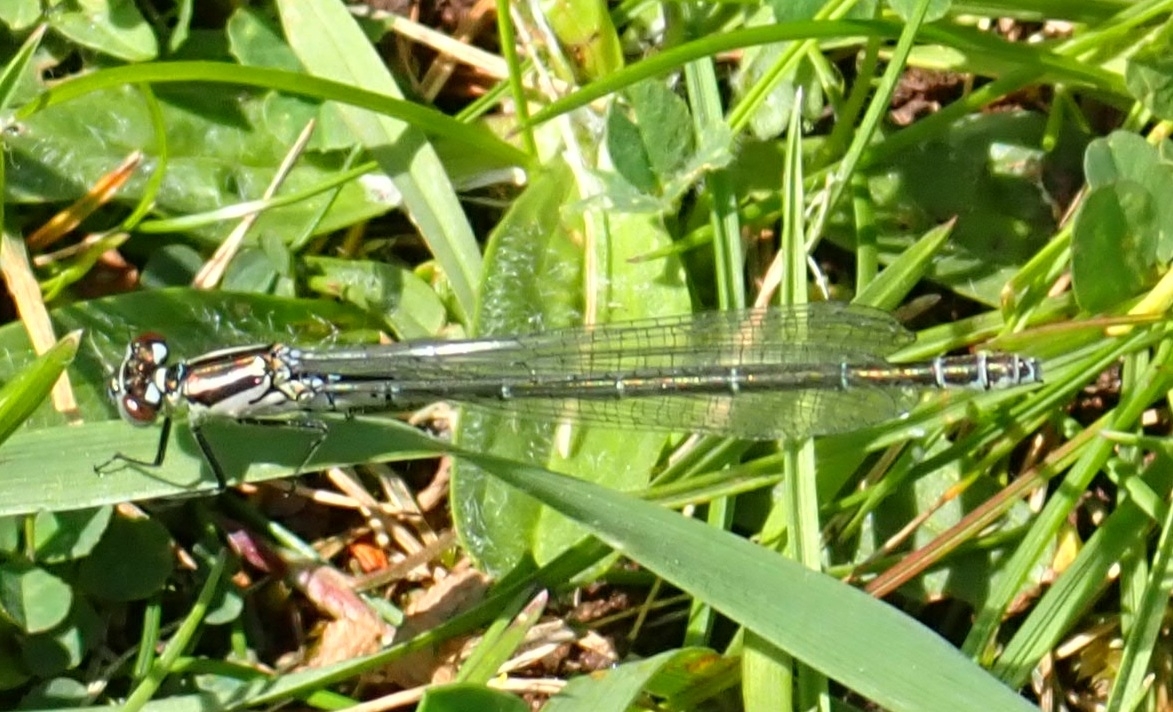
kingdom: Animalia
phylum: Arthropoda
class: Insecta
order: Odonata
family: Coenagrionidae
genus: Coenagrion
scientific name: Coenagrion puella
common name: Azure damselfly
